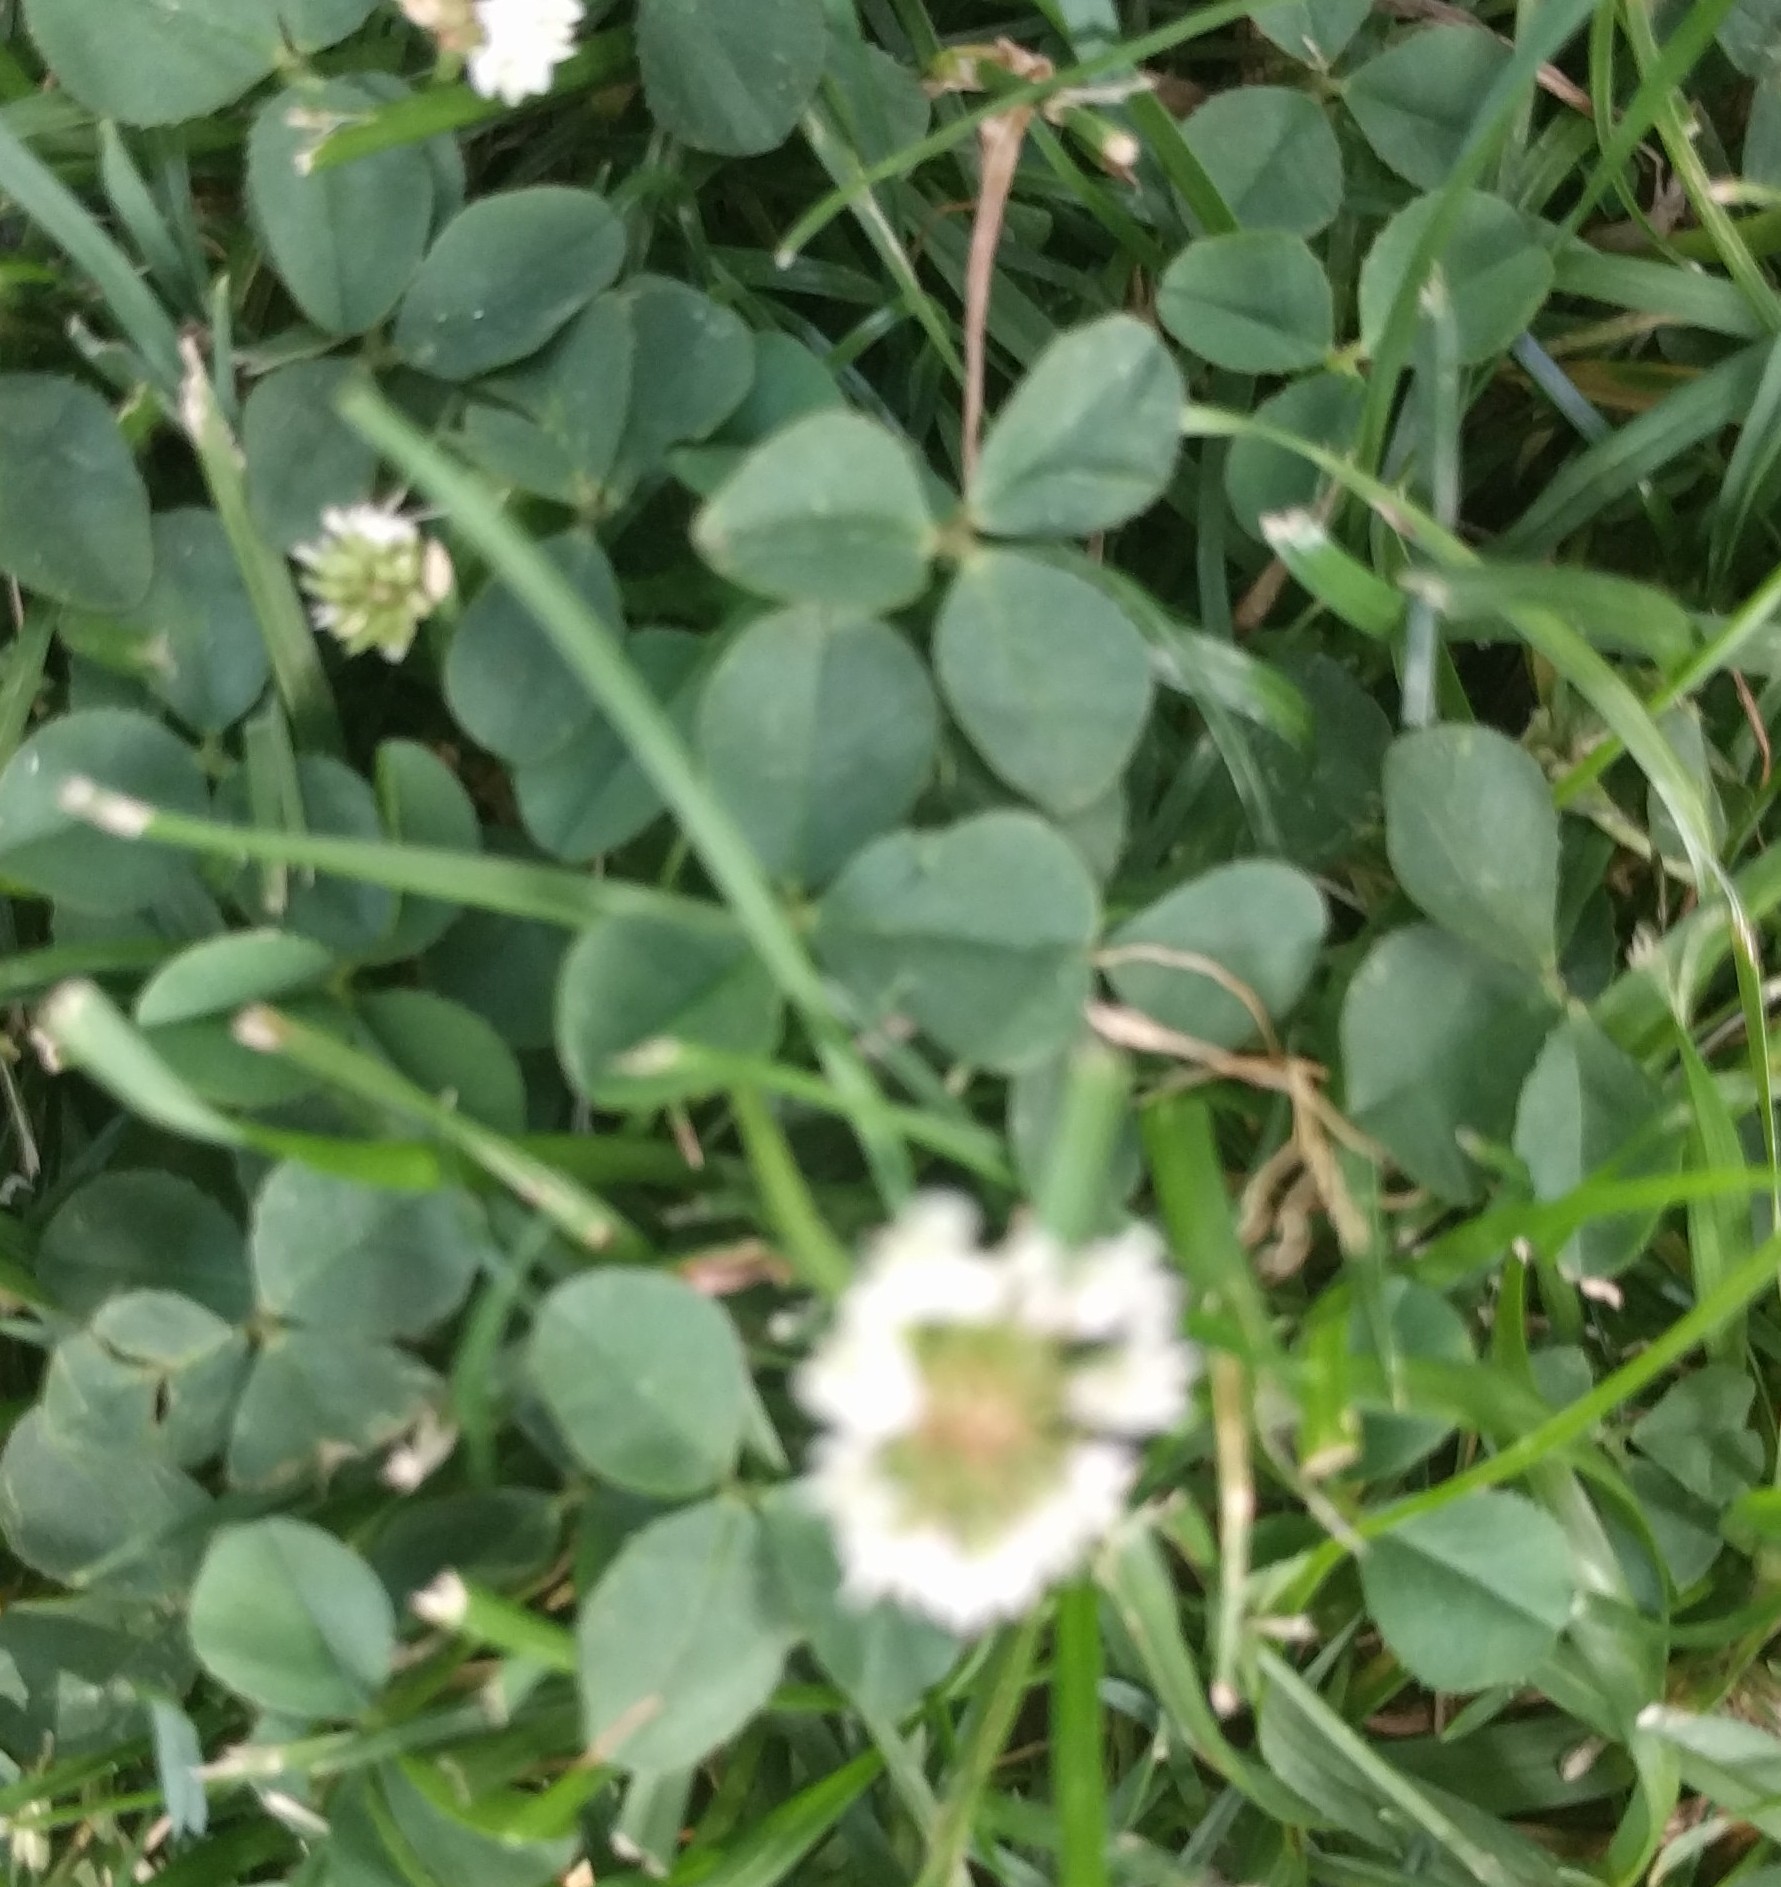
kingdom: Plantae
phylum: Tracheophyta
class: Magnoliopsida
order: Fabales
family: Fabaceae
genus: Trifolium
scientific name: Trifolium repens
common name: White clover
